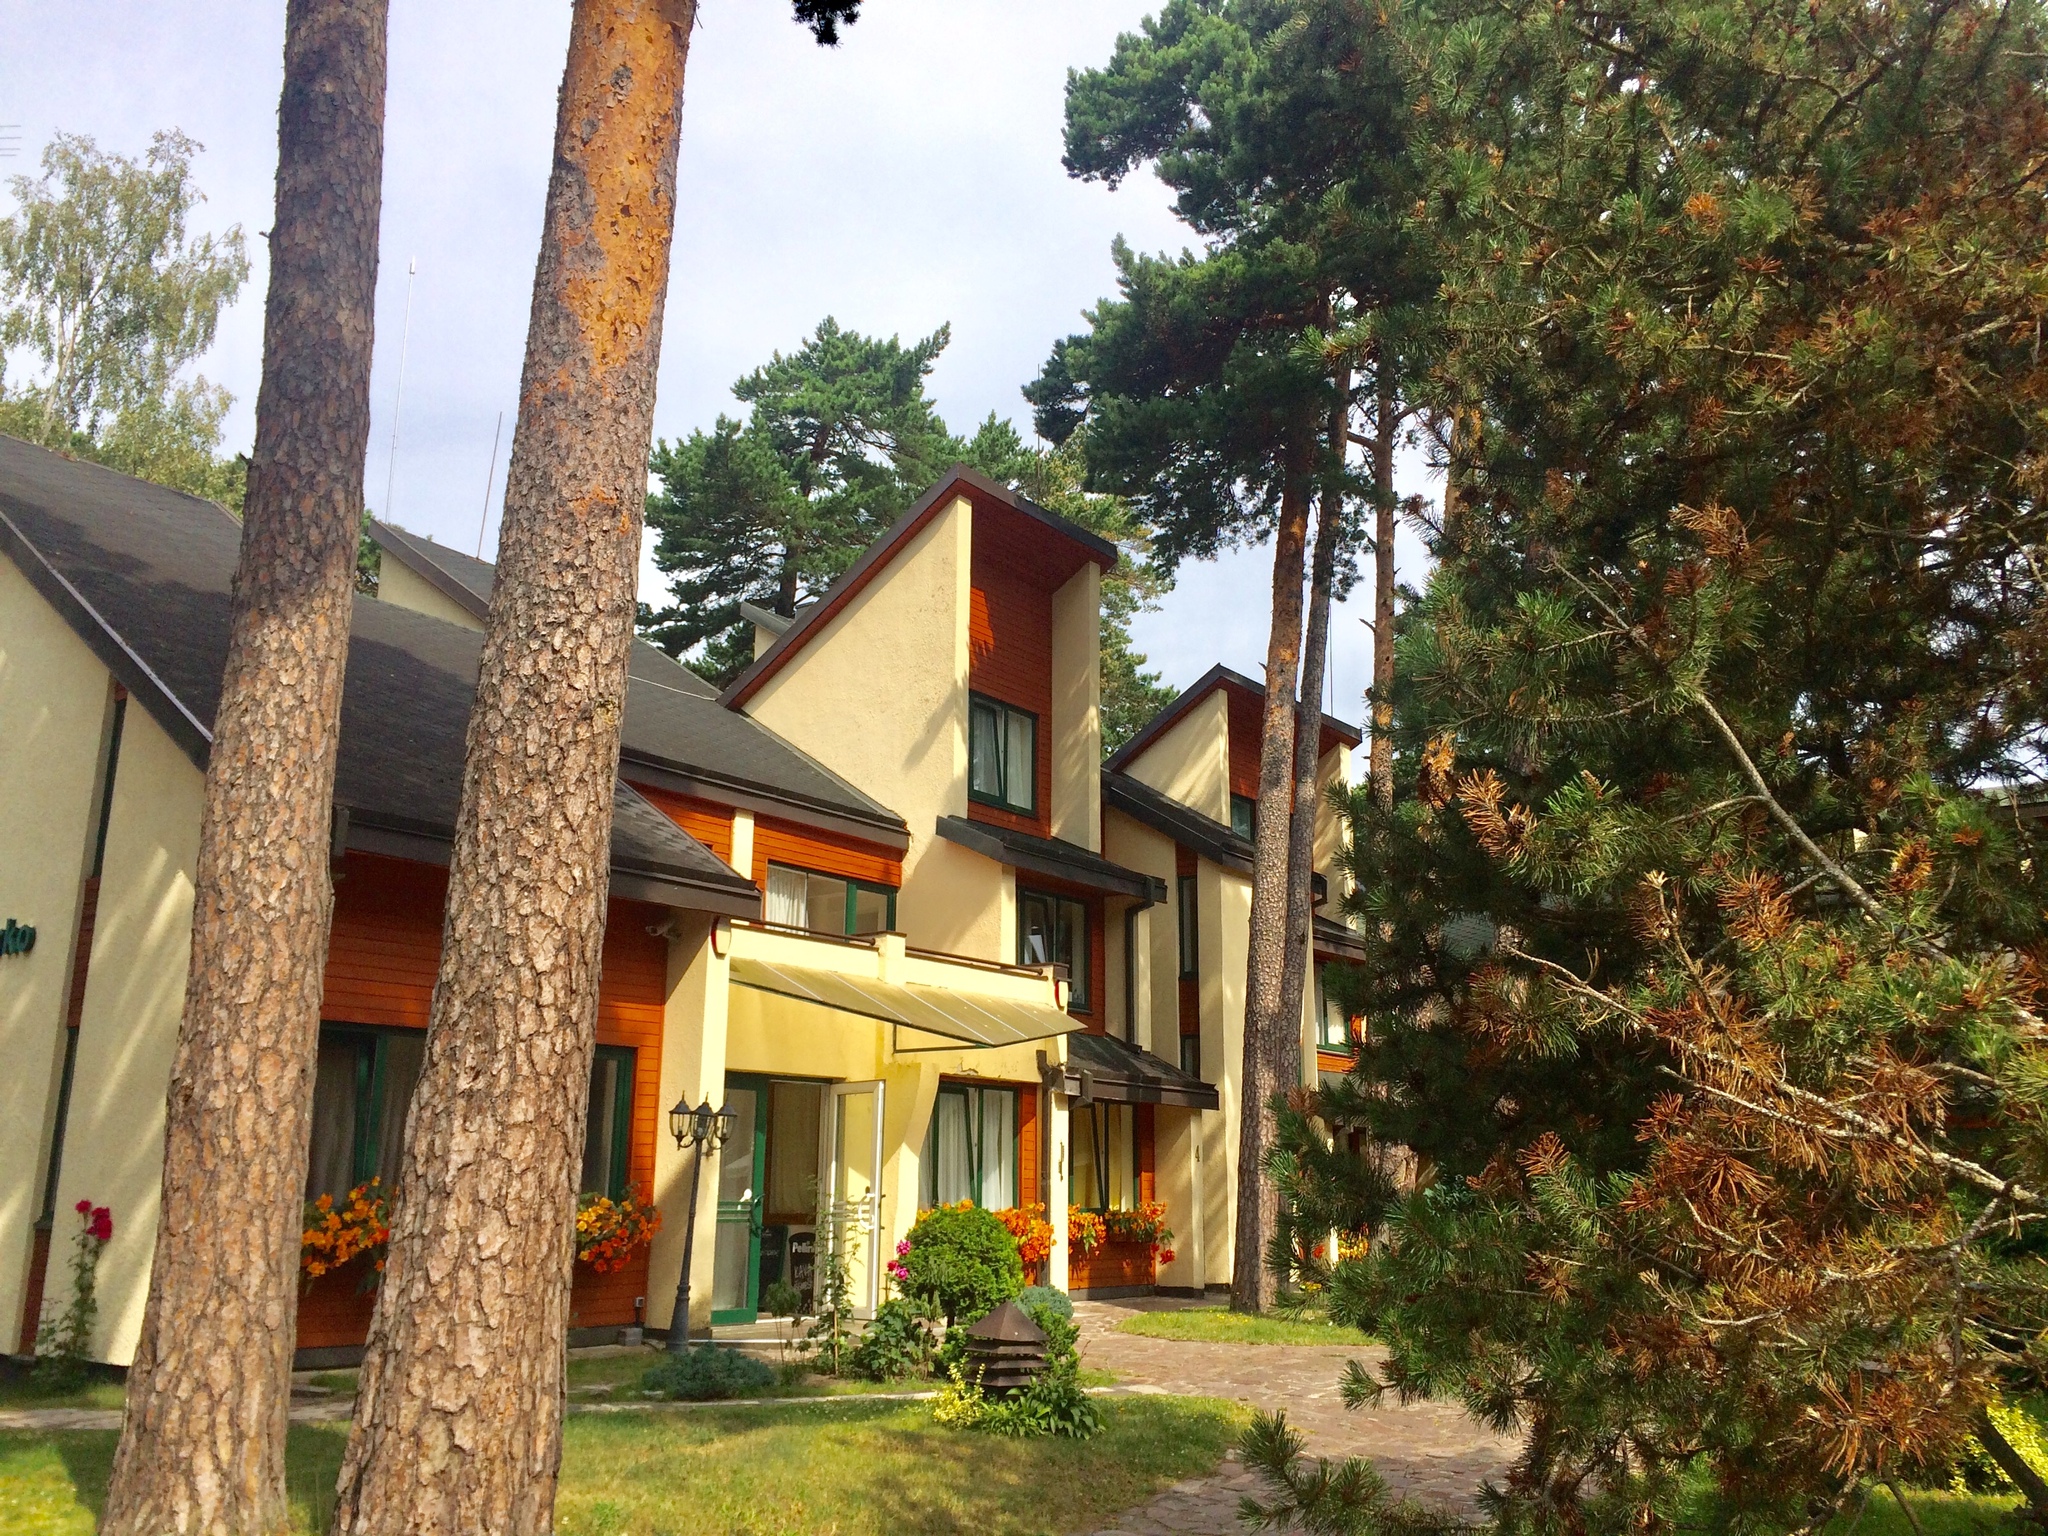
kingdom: Plantae
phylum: Tracheophyta
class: Pinopsida
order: Pinales
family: Pinaceae
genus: Pinus
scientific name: Pinus sylvestris
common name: Scots pine
